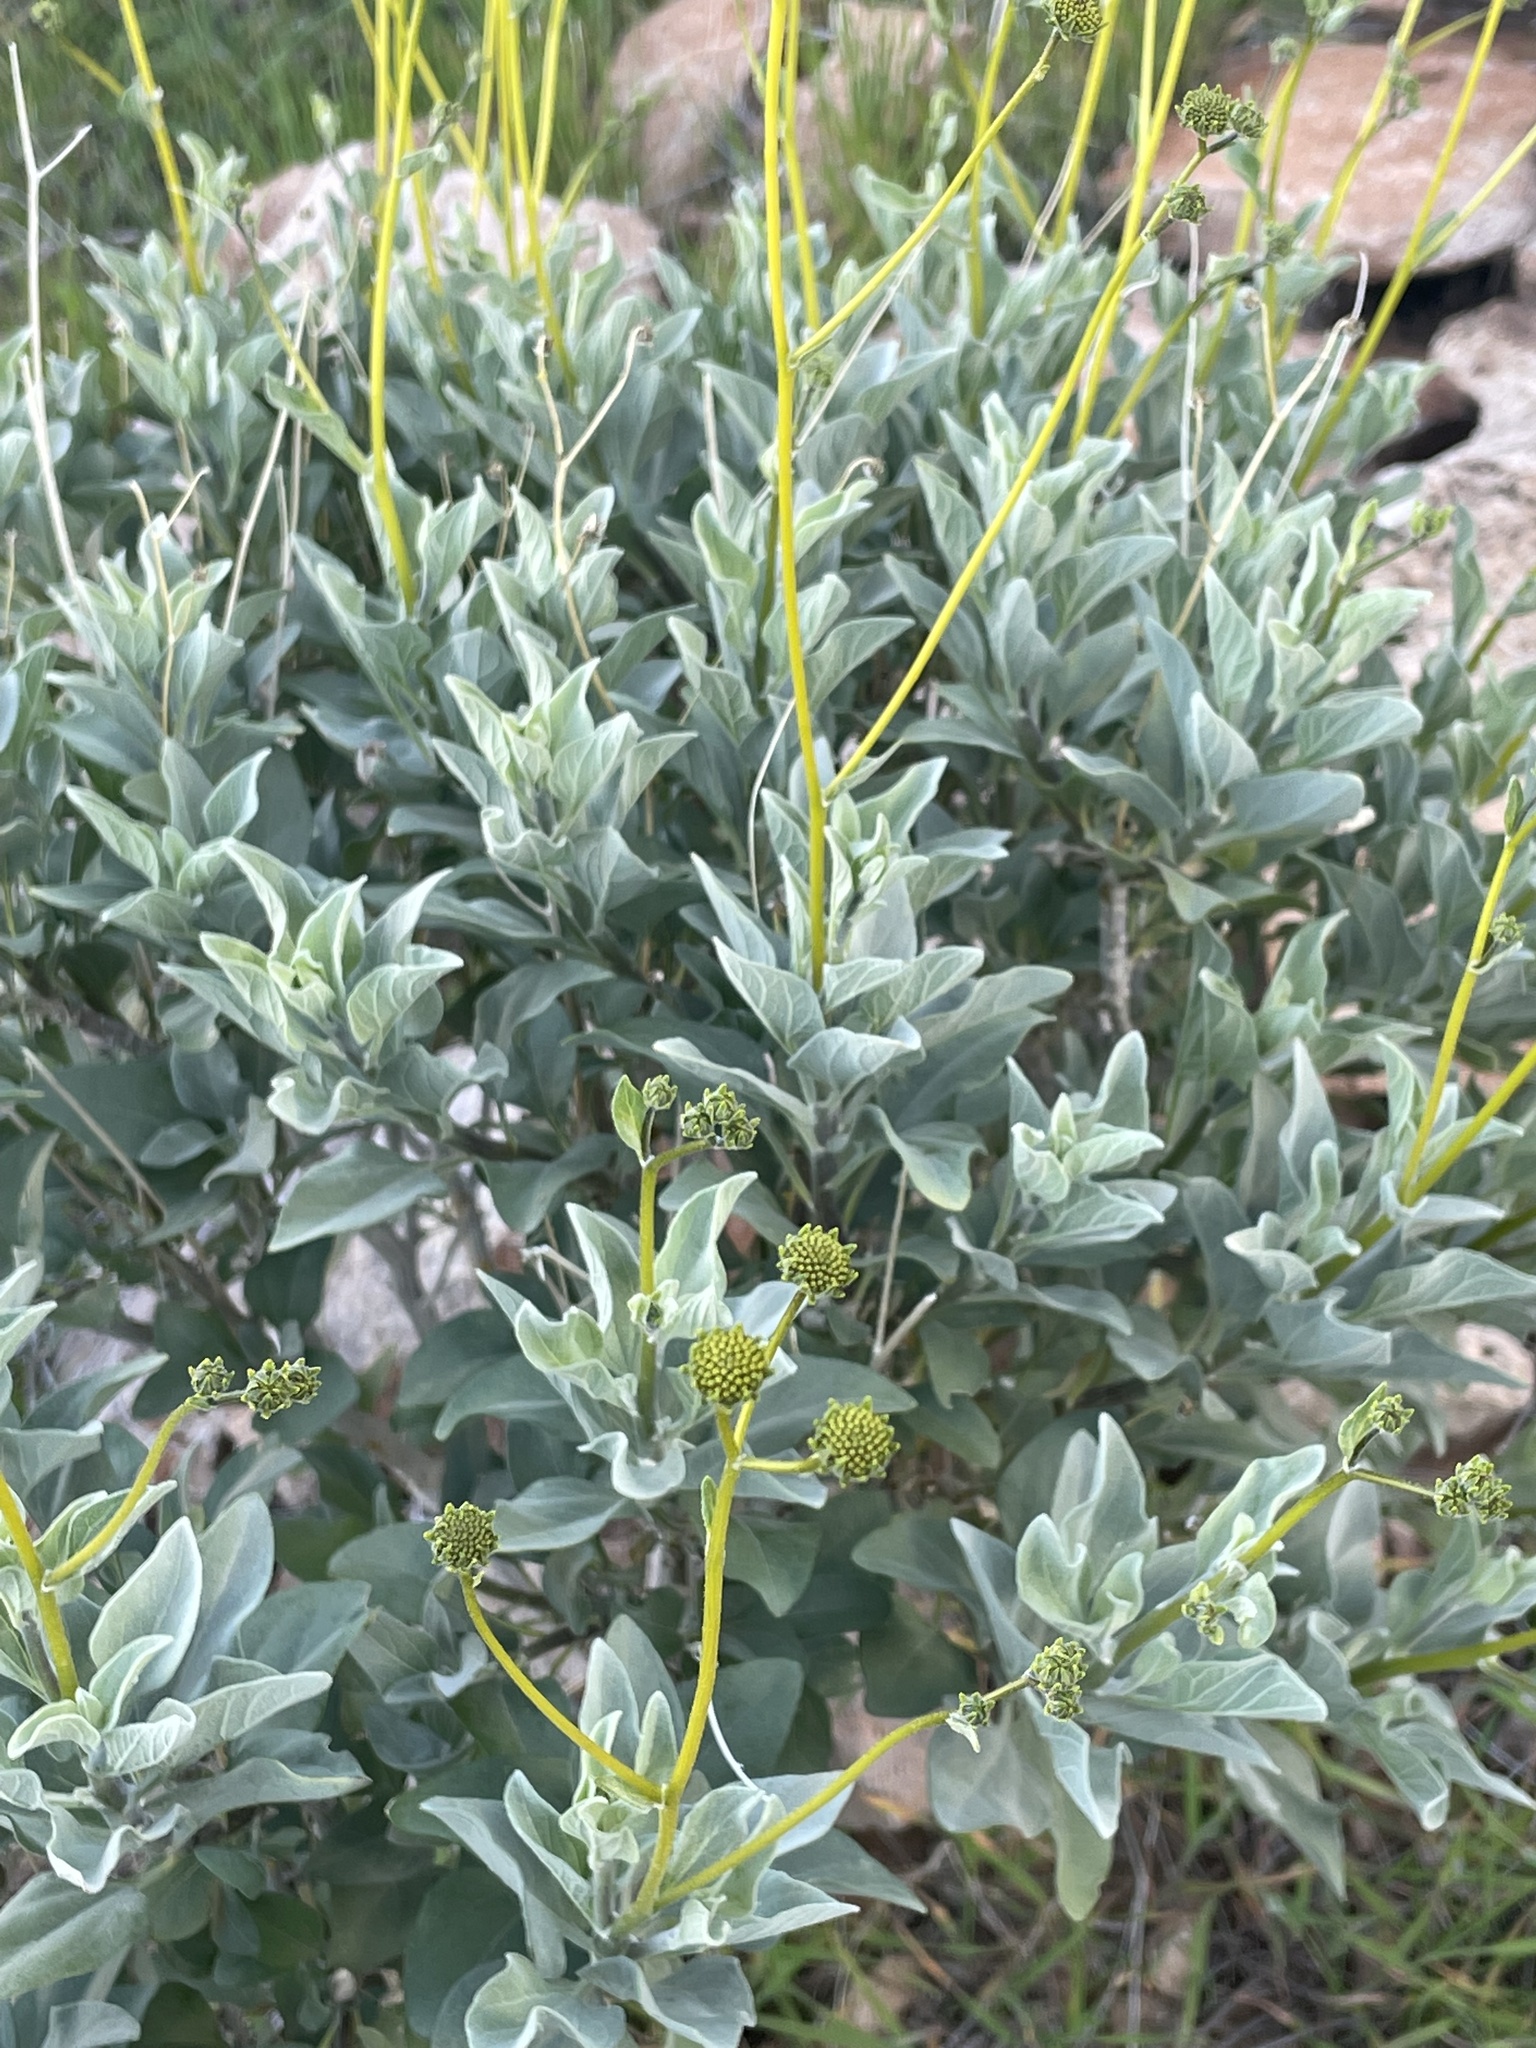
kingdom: Plantae
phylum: Tracheophyta
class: Magnoliopsida
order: Asterales
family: Asteraceae
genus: Encelia
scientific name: Encelia farinosa
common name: Brittlebush
